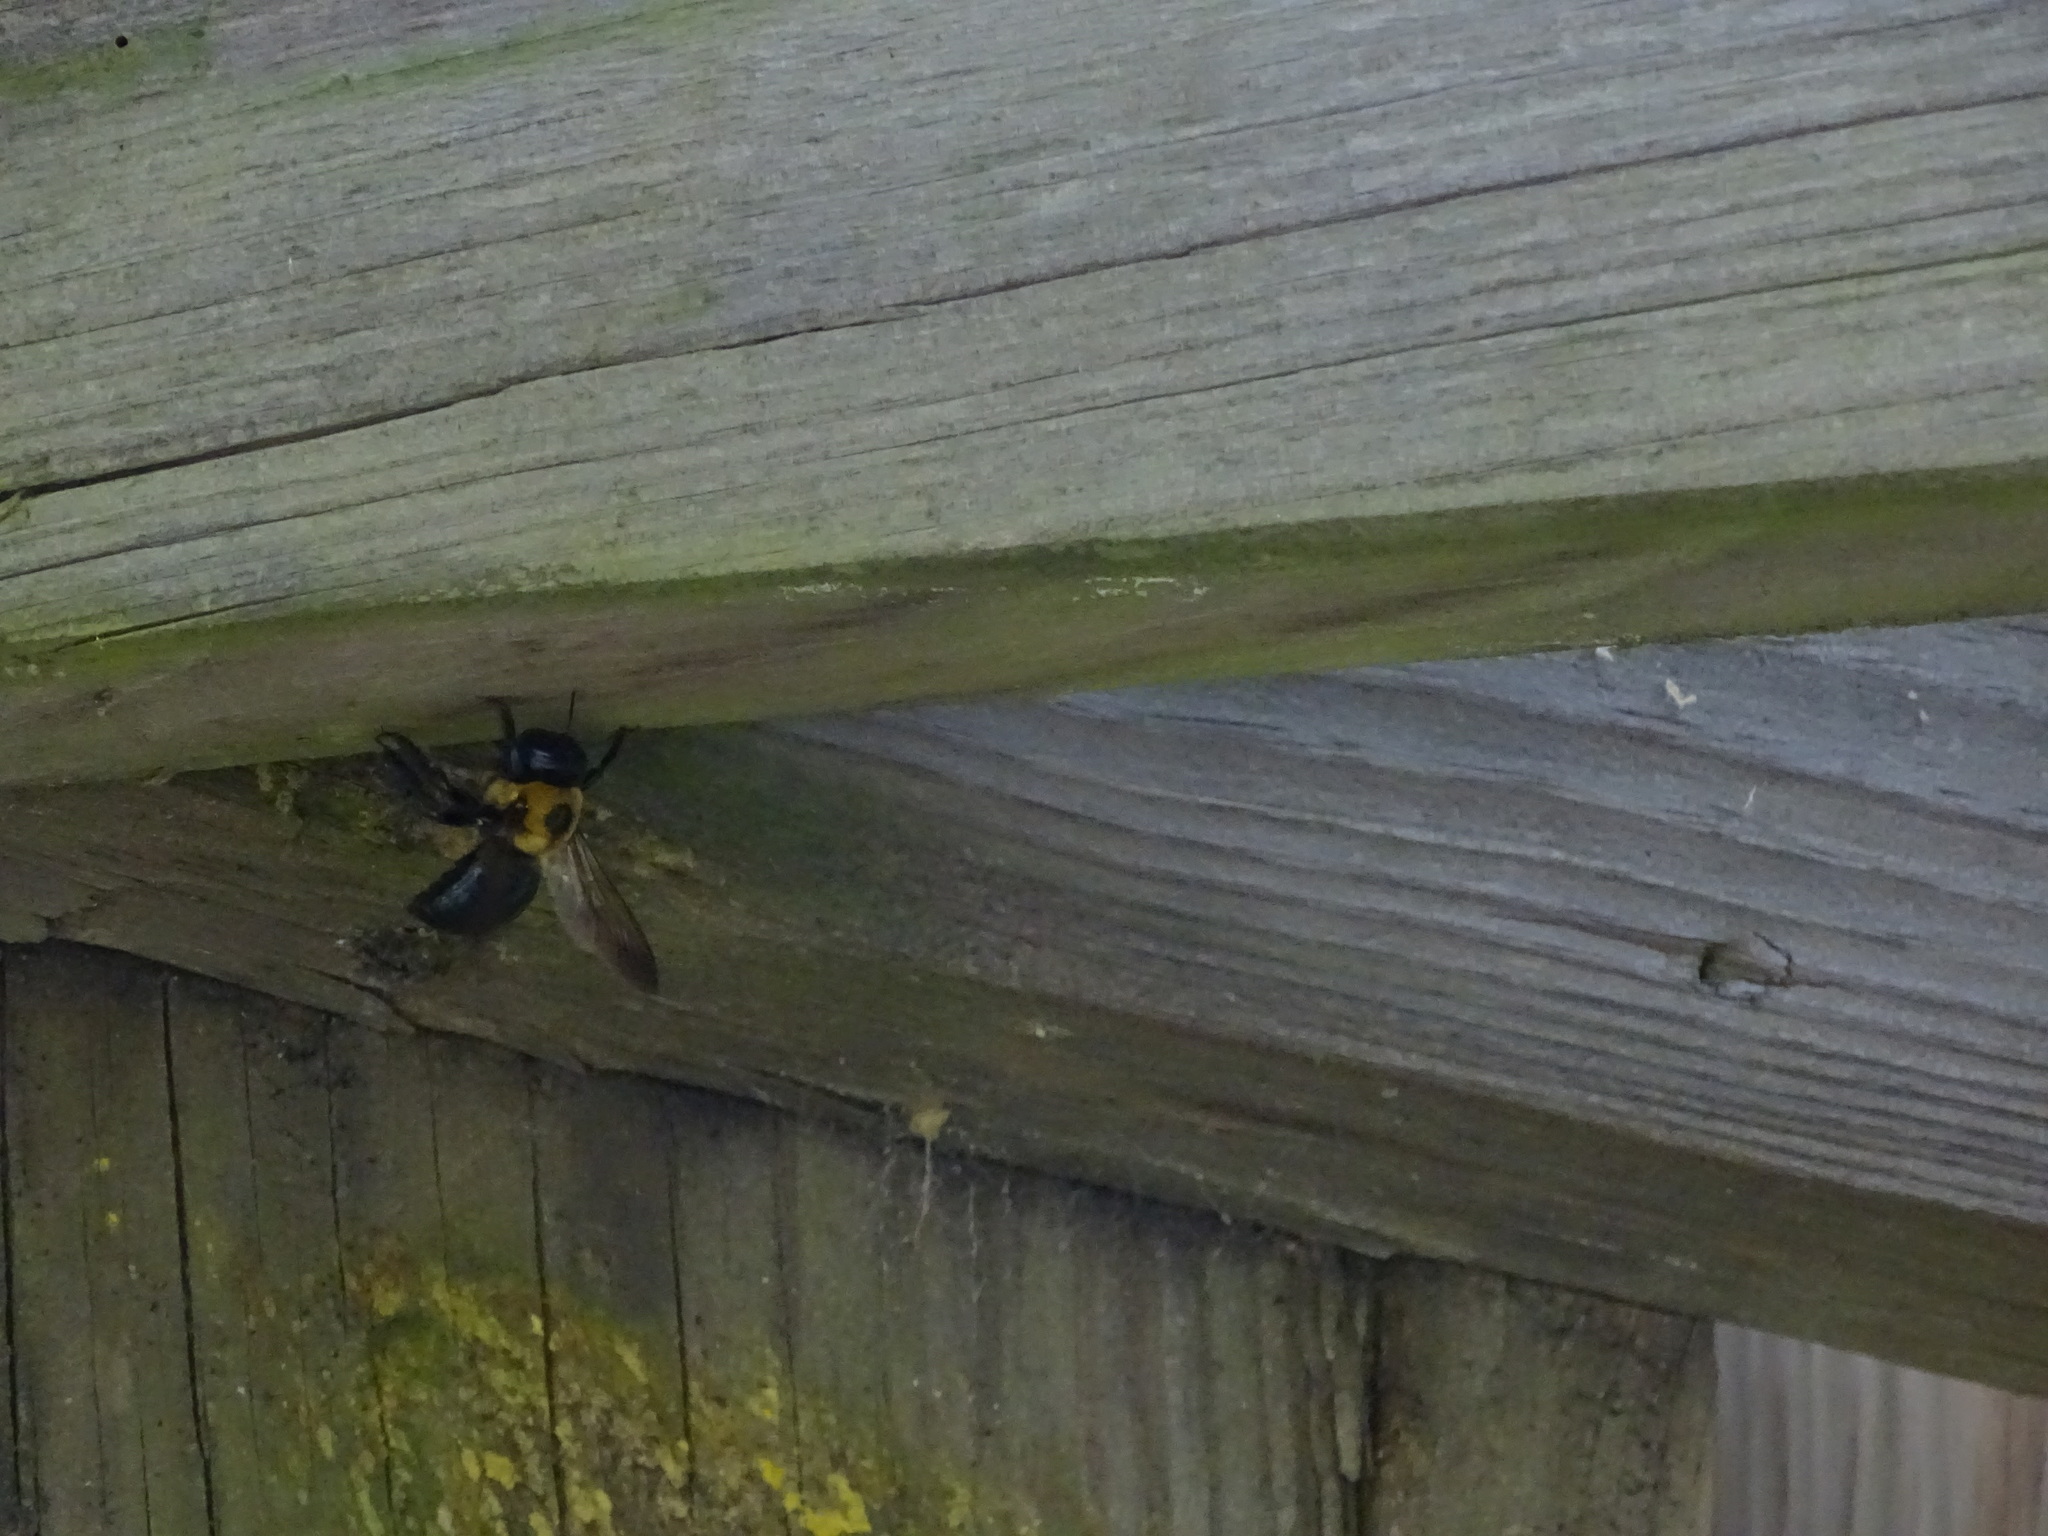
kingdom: Animalia
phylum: Arthropoda
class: Insecta
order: Hymenoptera
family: Apidae
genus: Xylocopa
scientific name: Xylocopa virginica
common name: Carpenter bee
